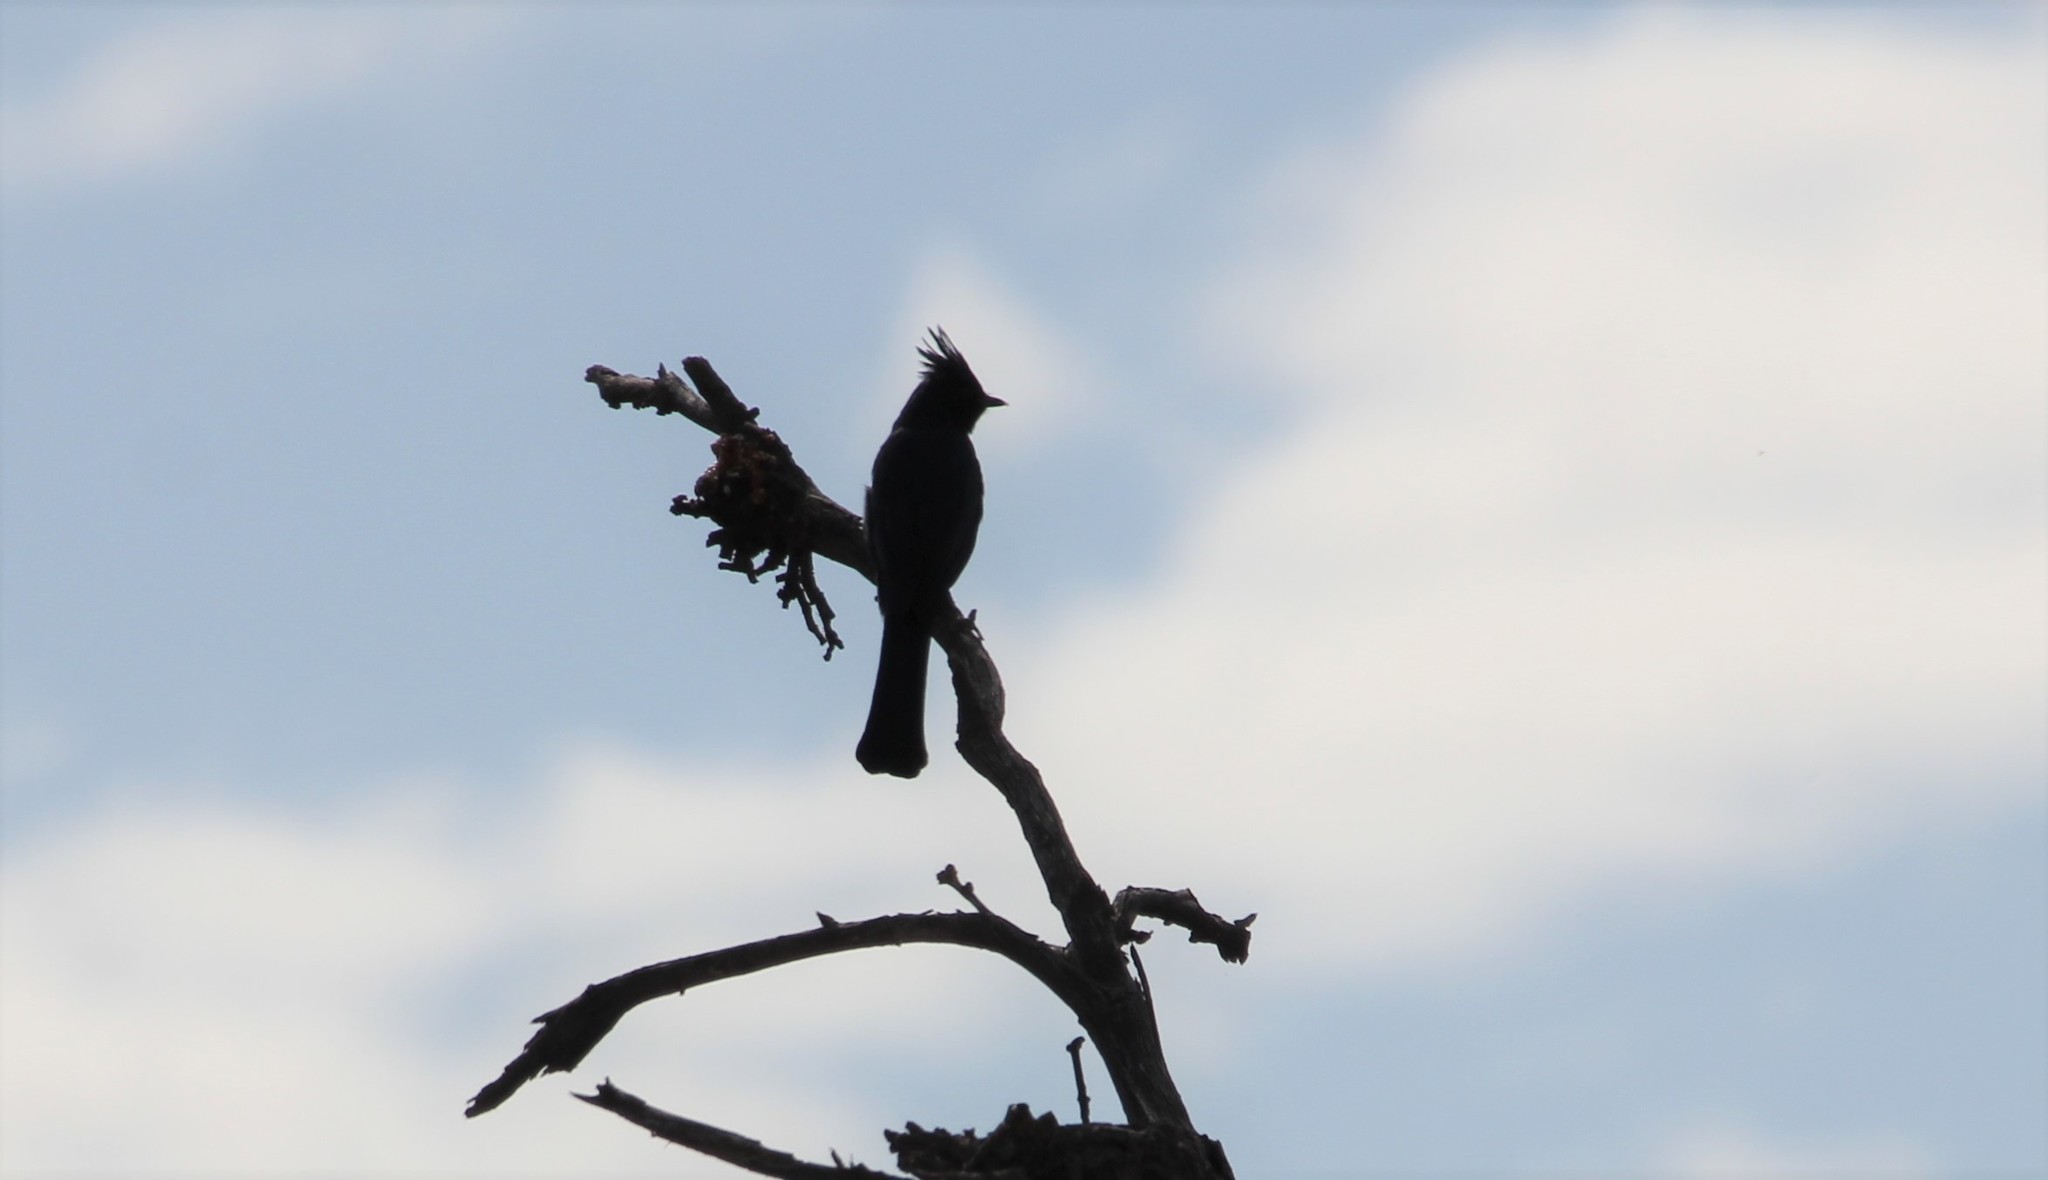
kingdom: Animalia
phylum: Chordata
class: Aves
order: Passeriformes
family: Ptilogonatidae
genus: Phainopepla
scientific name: Phainopepla nitens
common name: Phainopepla
